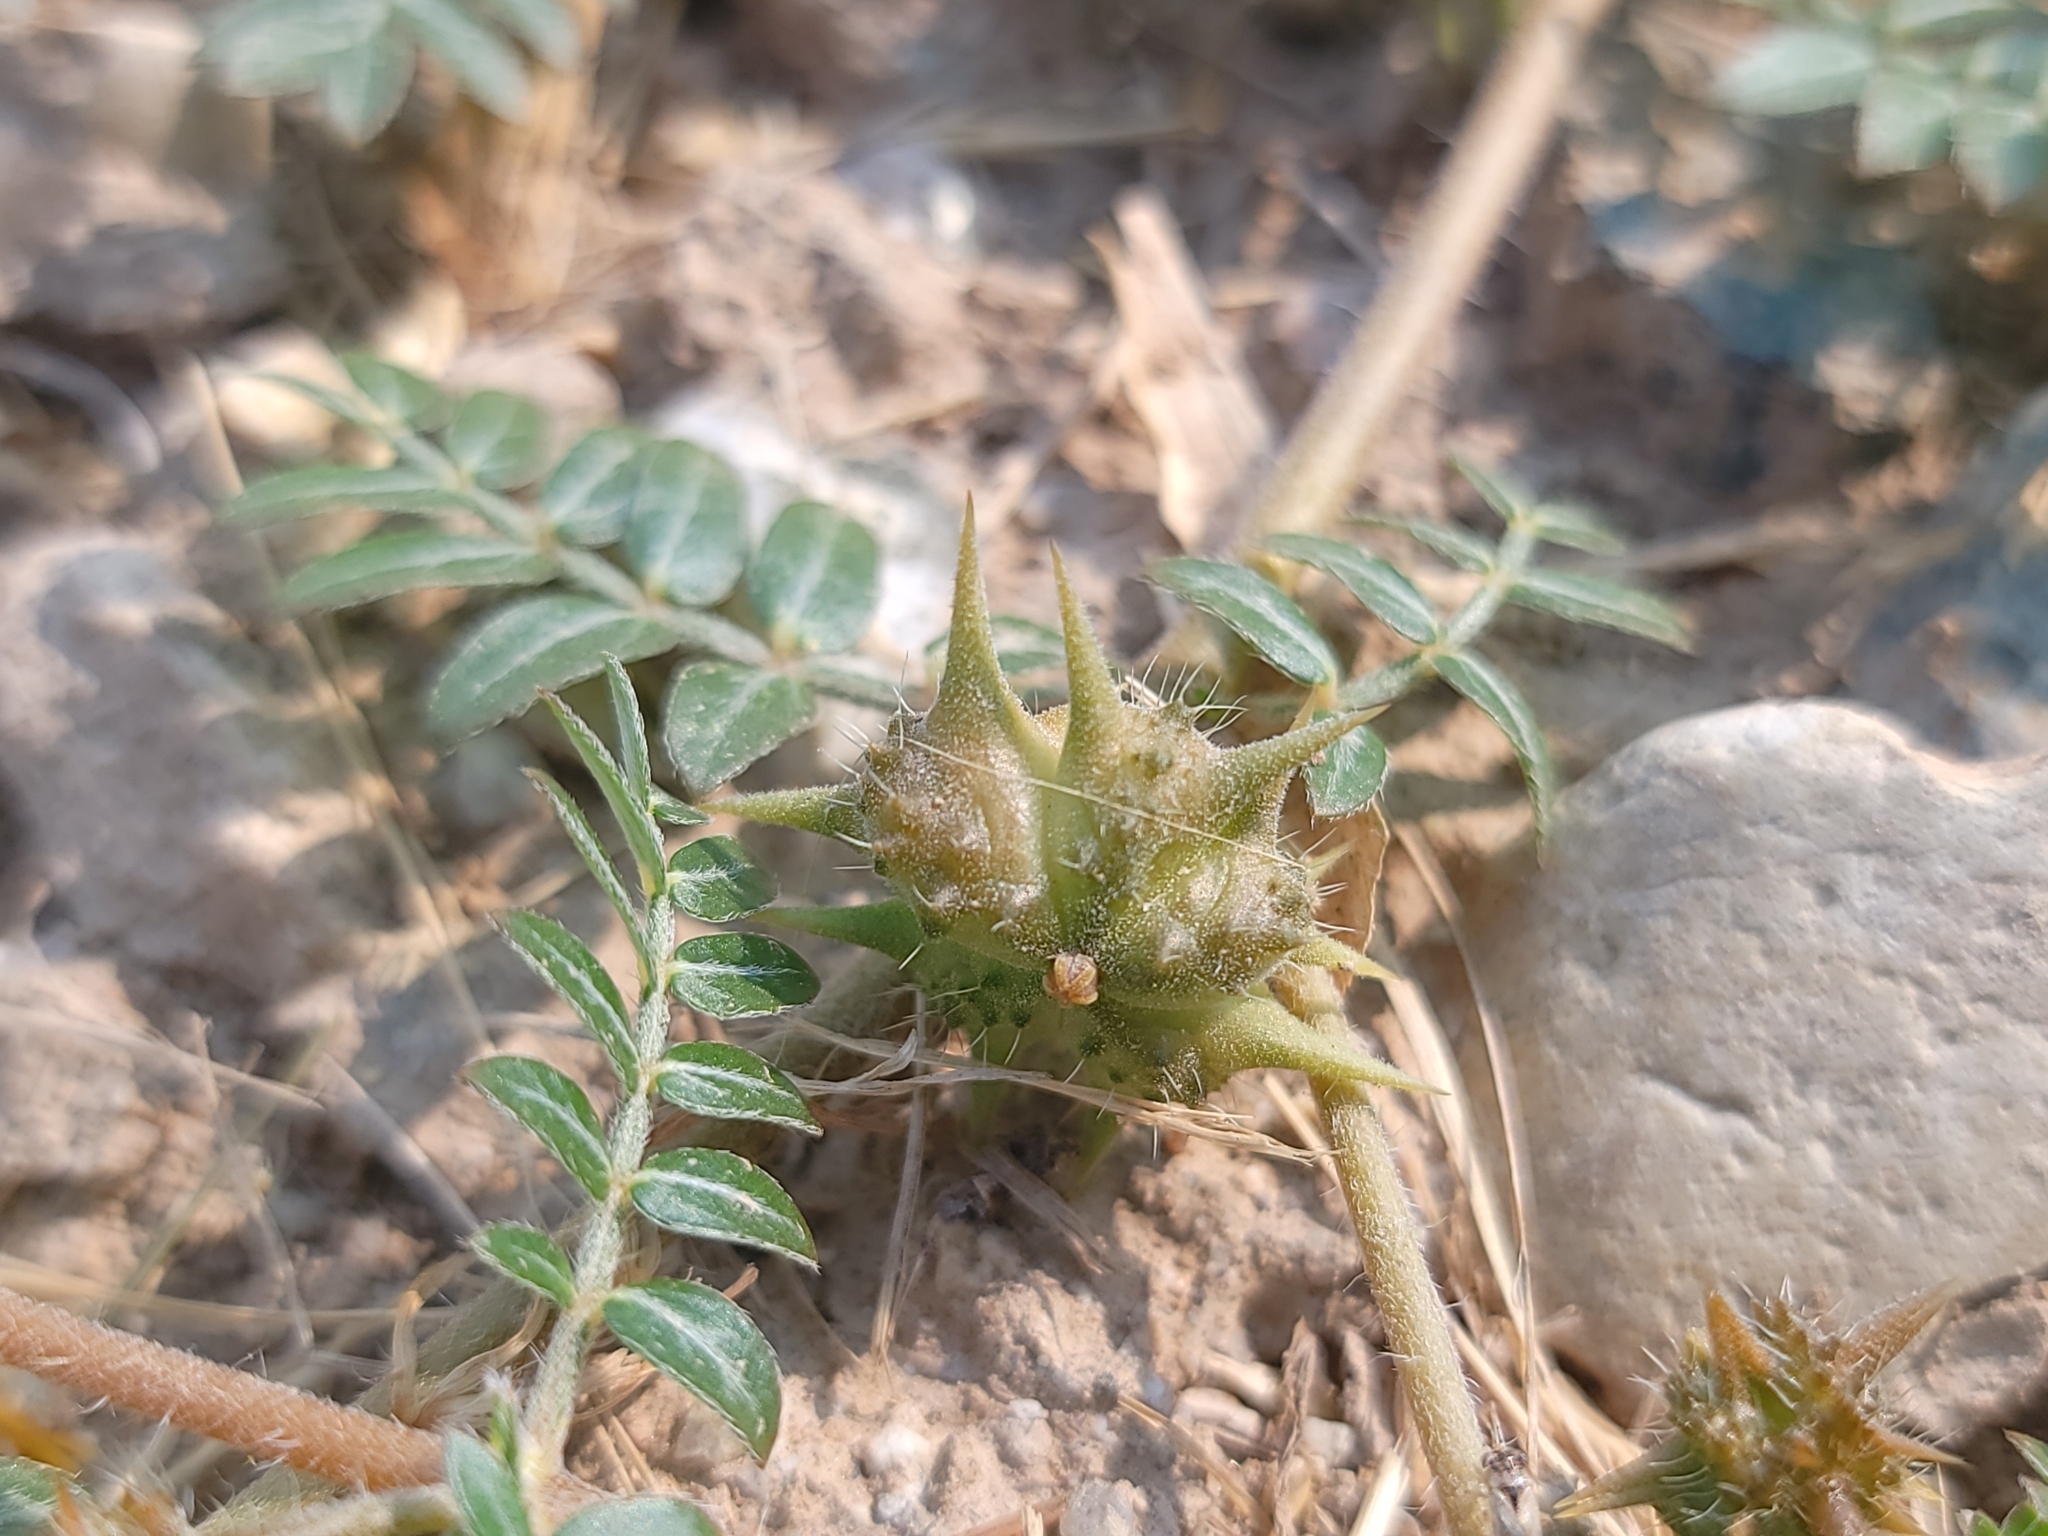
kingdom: Plantae
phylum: Tracheophyta
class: Magnoliopsida
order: Zygophyllales
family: Zygophyllaceae
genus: Tribulus
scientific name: Tribulus terrestris
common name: Puncturevine
